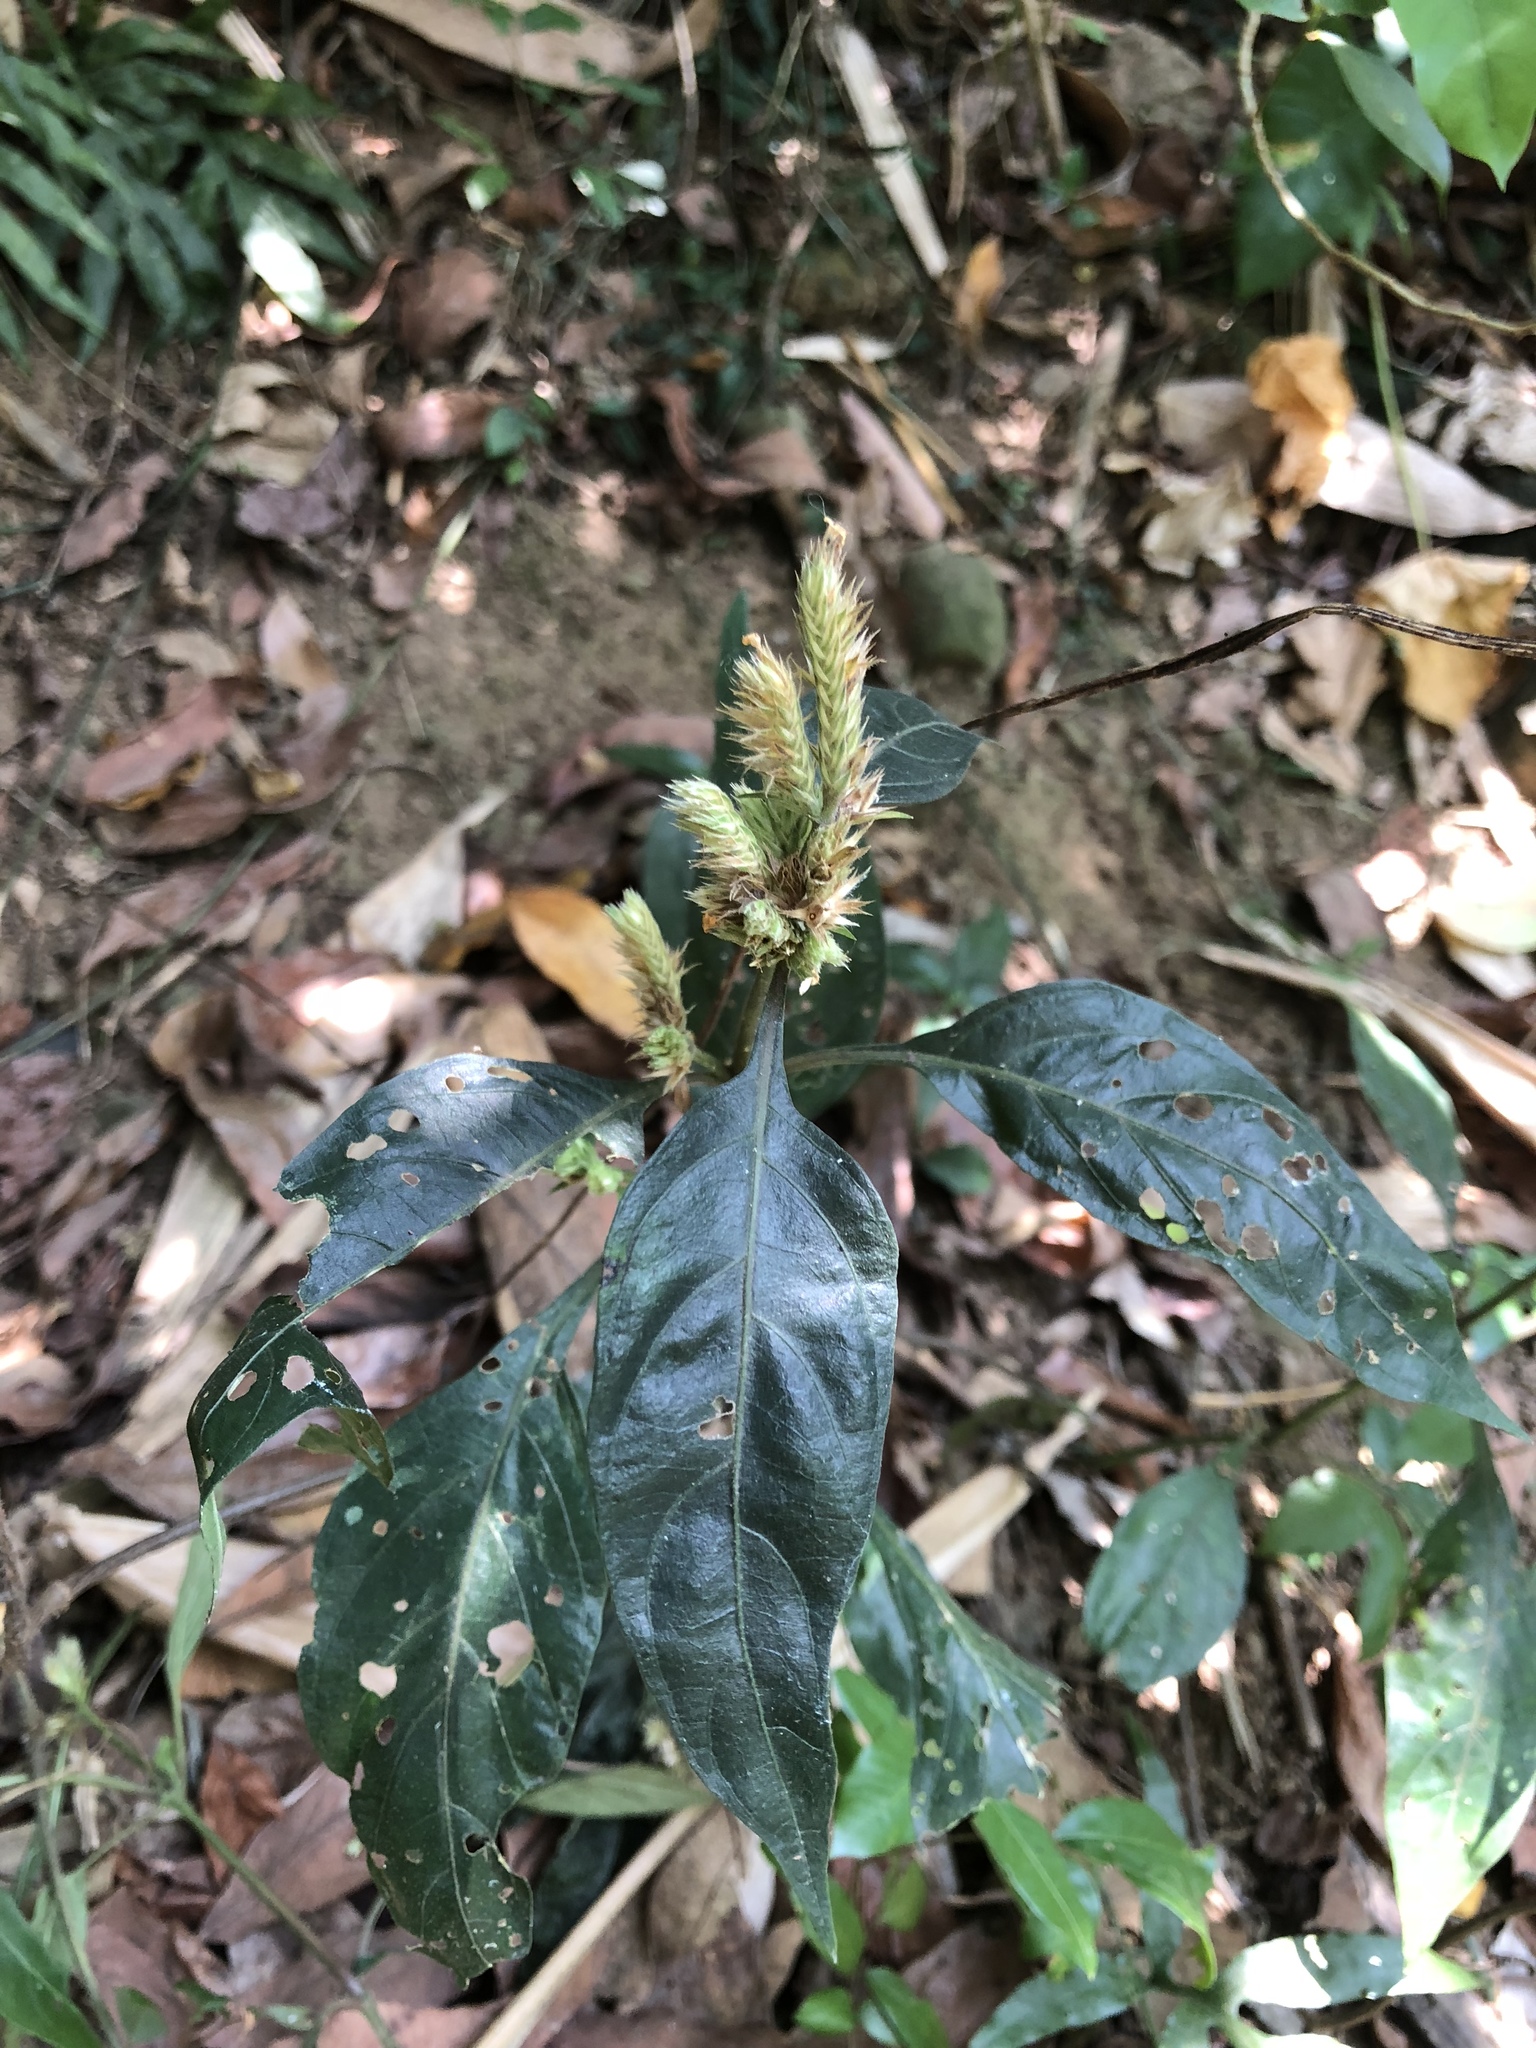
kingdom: Plantae
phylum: Tracheophyta
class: Magnoliopsida
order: Lamiales
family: Acanthaceae
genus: Lepidagathis
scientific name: Lepidagathis formosensis
